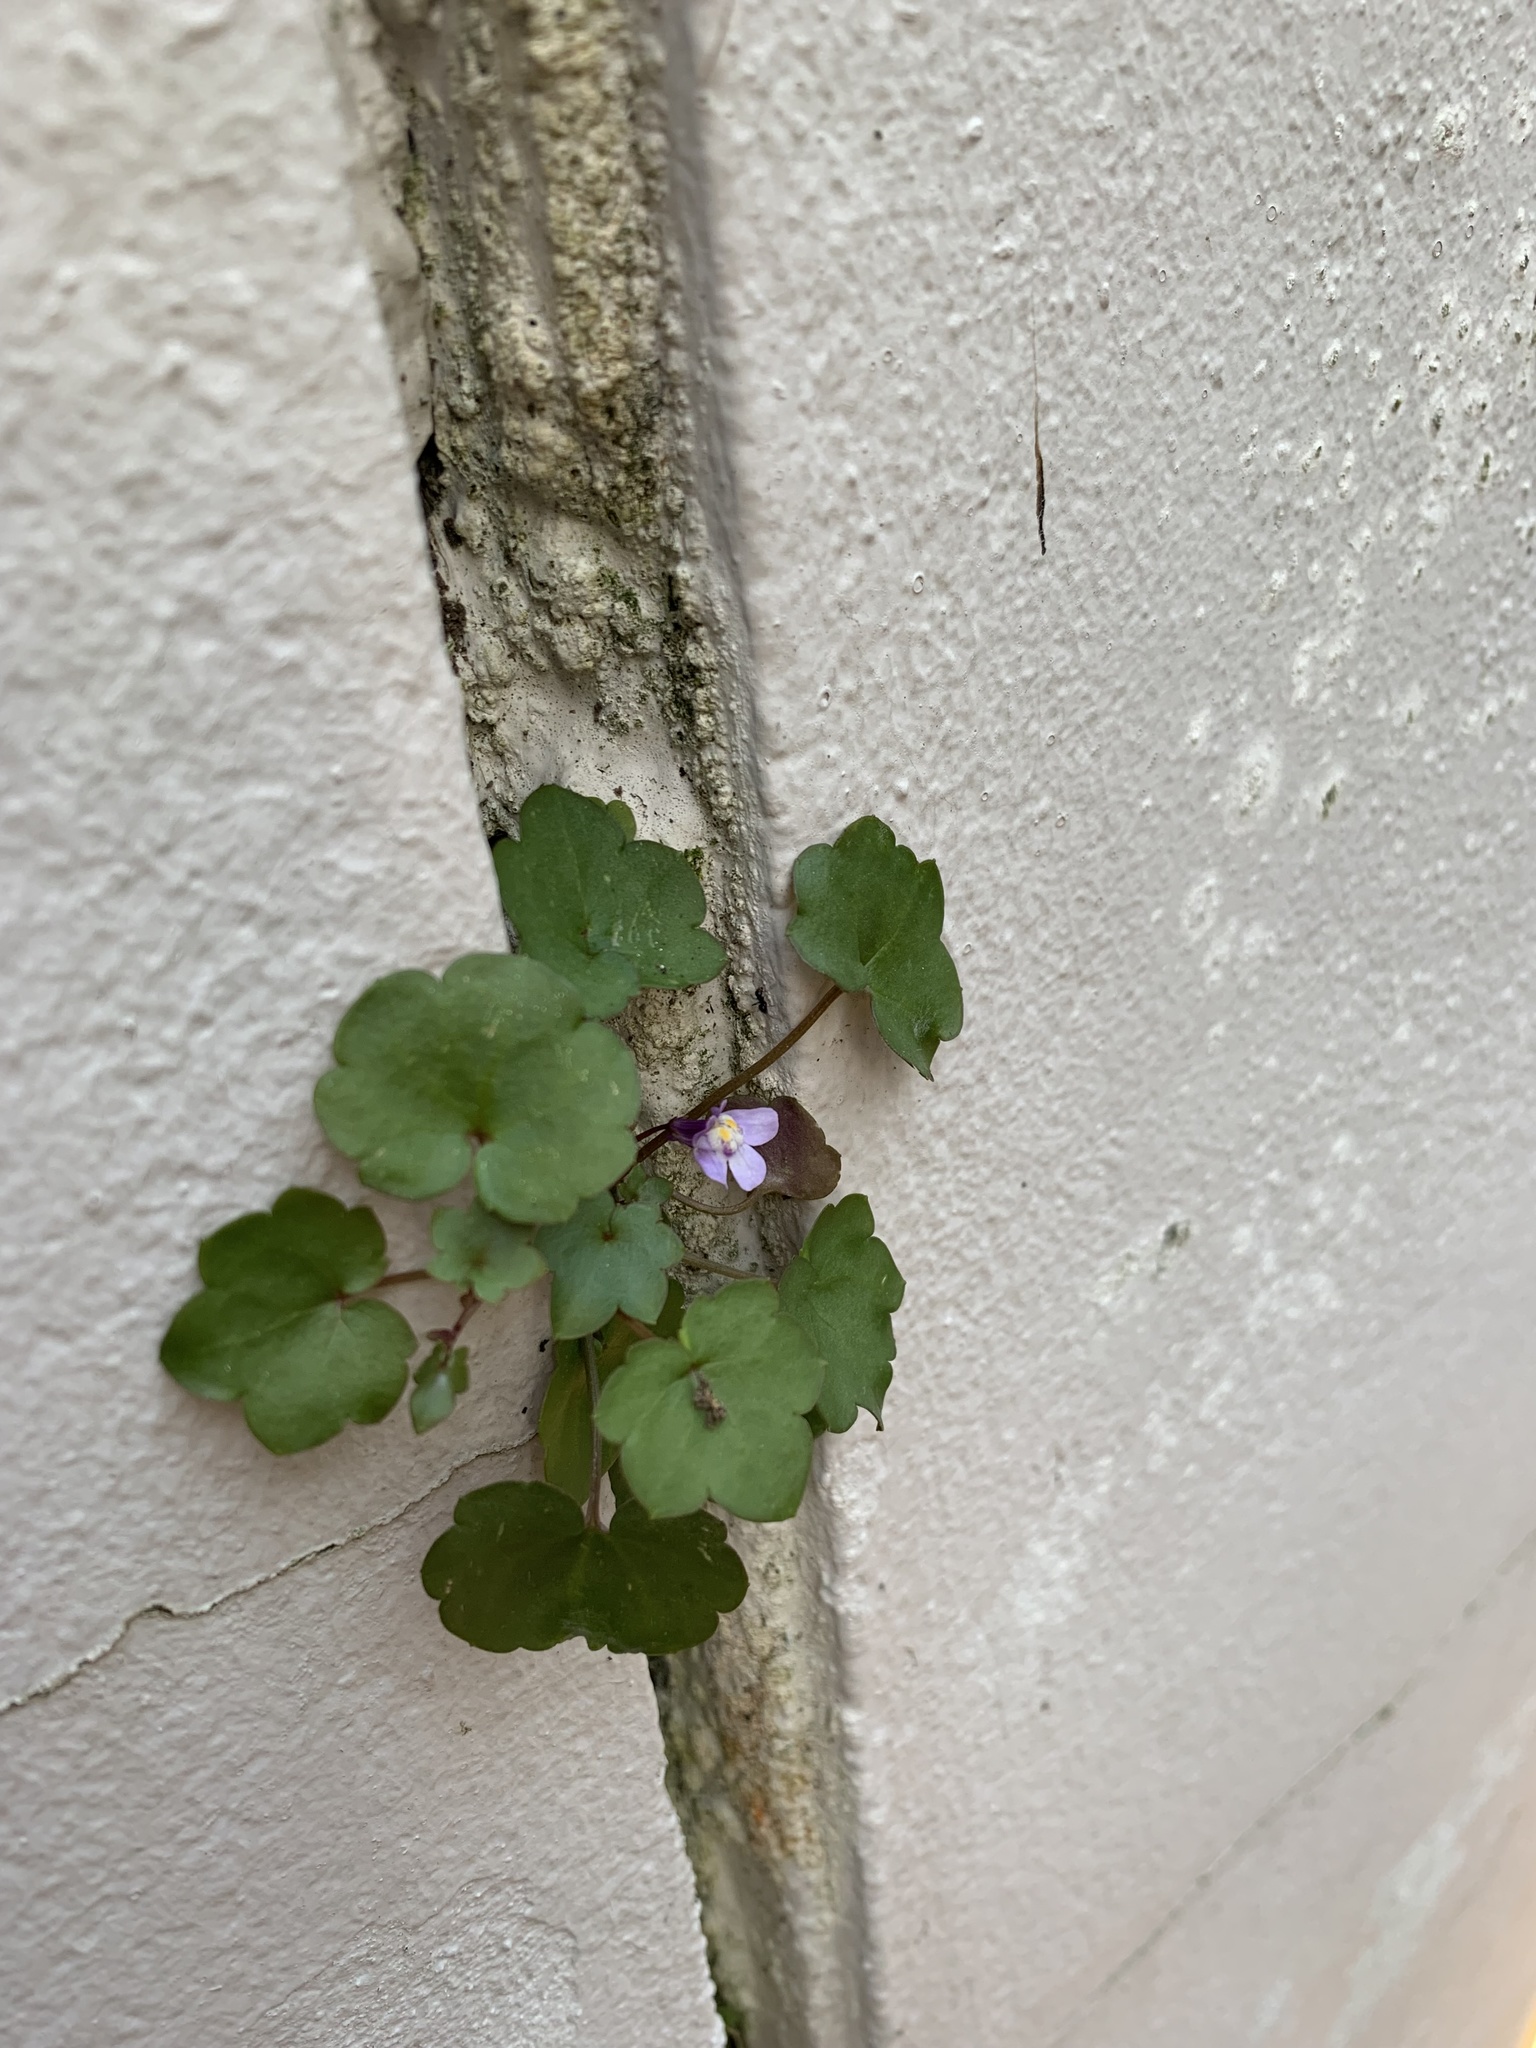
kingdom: Plantae
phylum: Tracheophyta
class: Magnoliopsida
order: Lamiales
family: Plantaginaceae
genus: Cymbalaria
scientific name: Cymbalaria muralis
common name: Ivy-leaved toadflax
